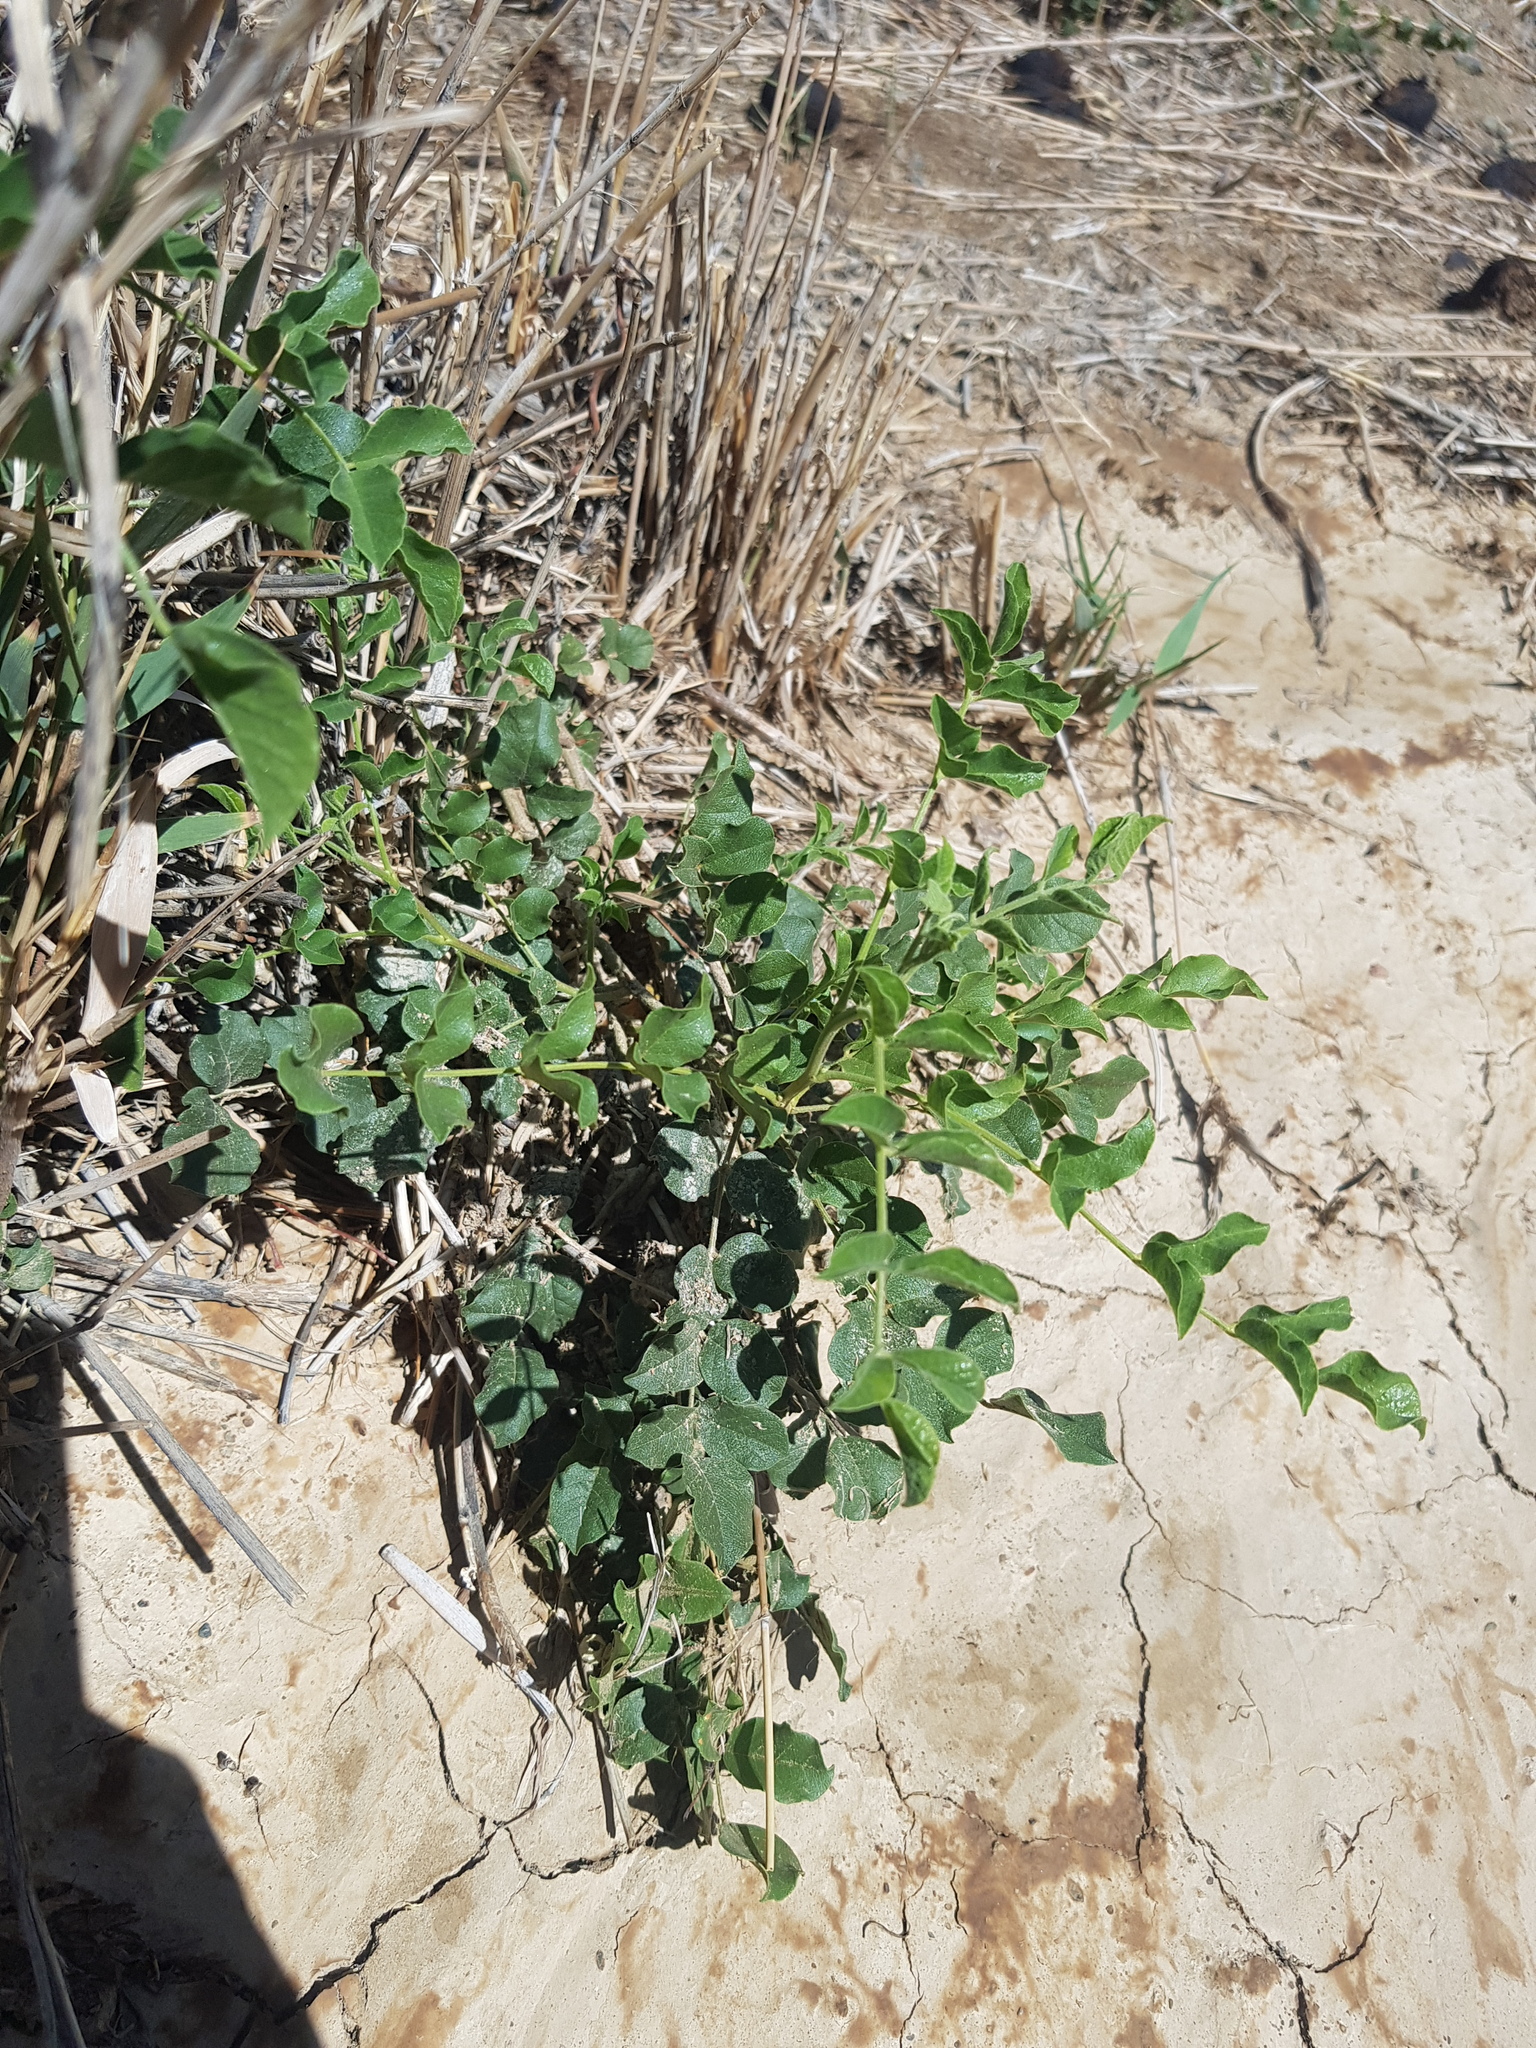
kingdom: Plantae
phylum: Tracheophyta
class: Magnoliopsida
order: Fabales
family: Fabaceae
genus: Glycyrrhiza
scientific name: Glycyrrhiza uralensis
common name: Chinese licorice
